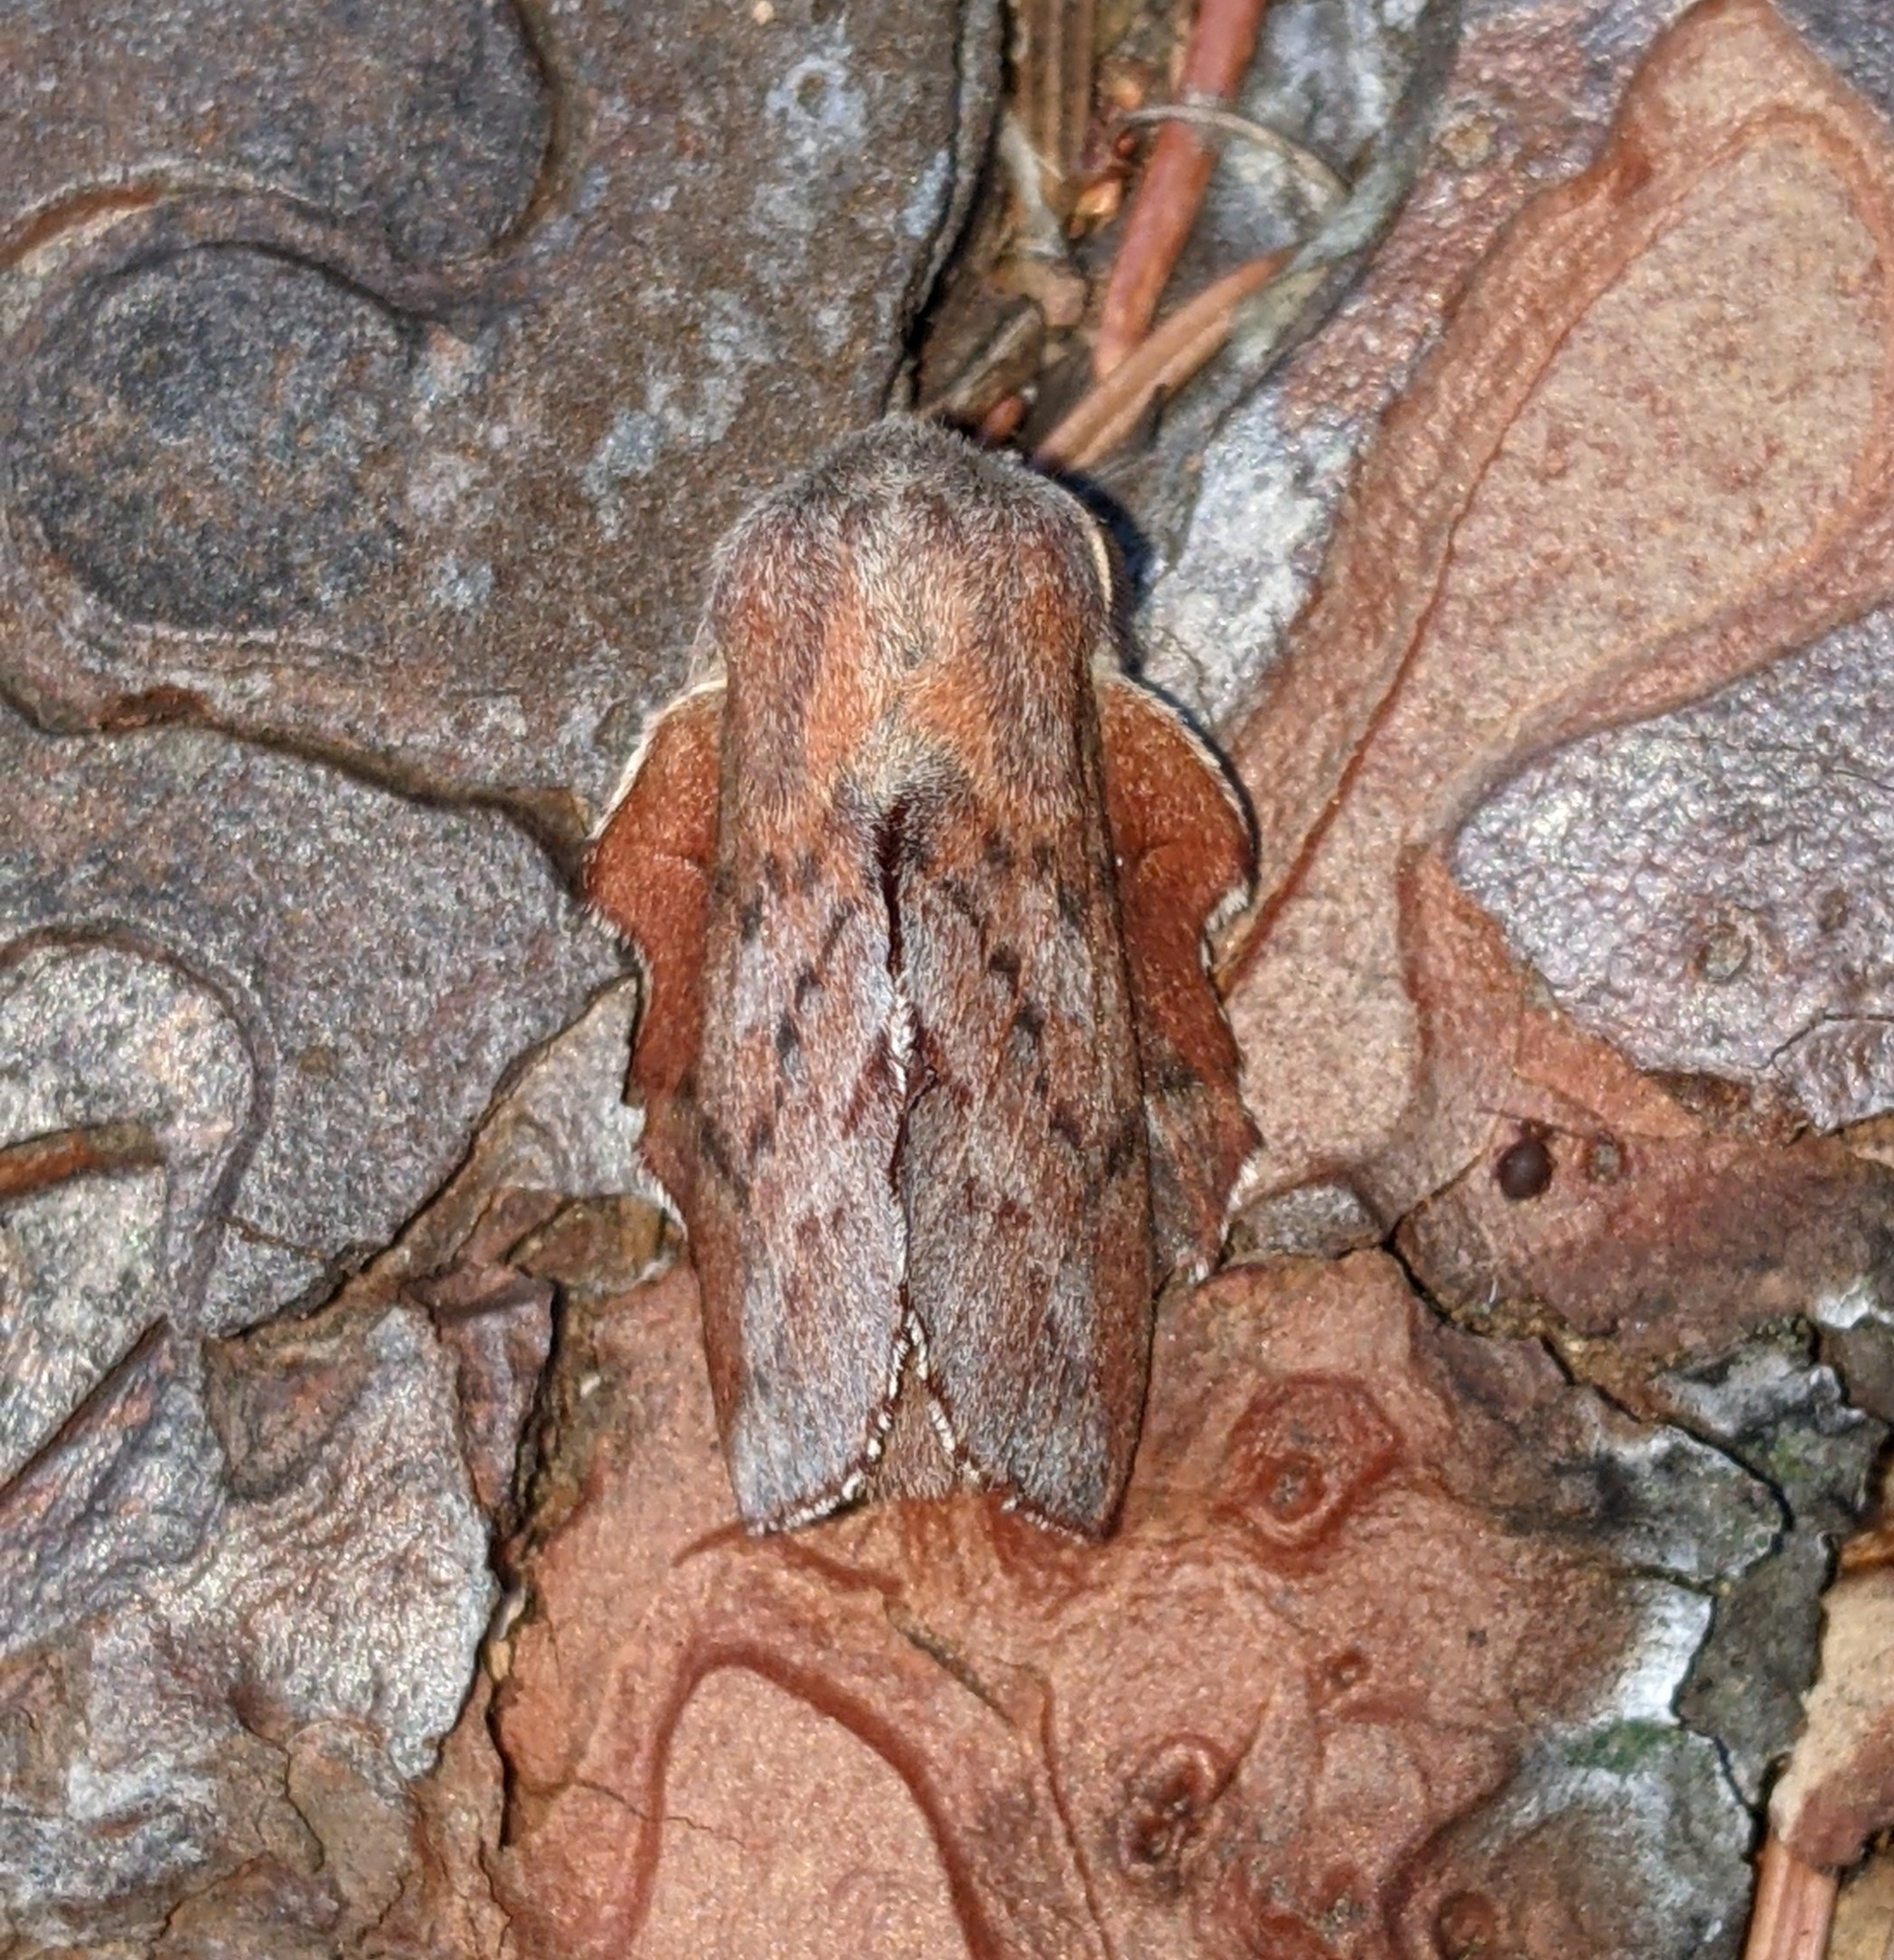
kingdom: Animalia
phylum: Arthropoda
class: Insecta
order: Lepidoptera
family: Lasiocampidae
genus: Phyllodesma
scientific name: Phyllodesma americana
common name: American lappet moth
